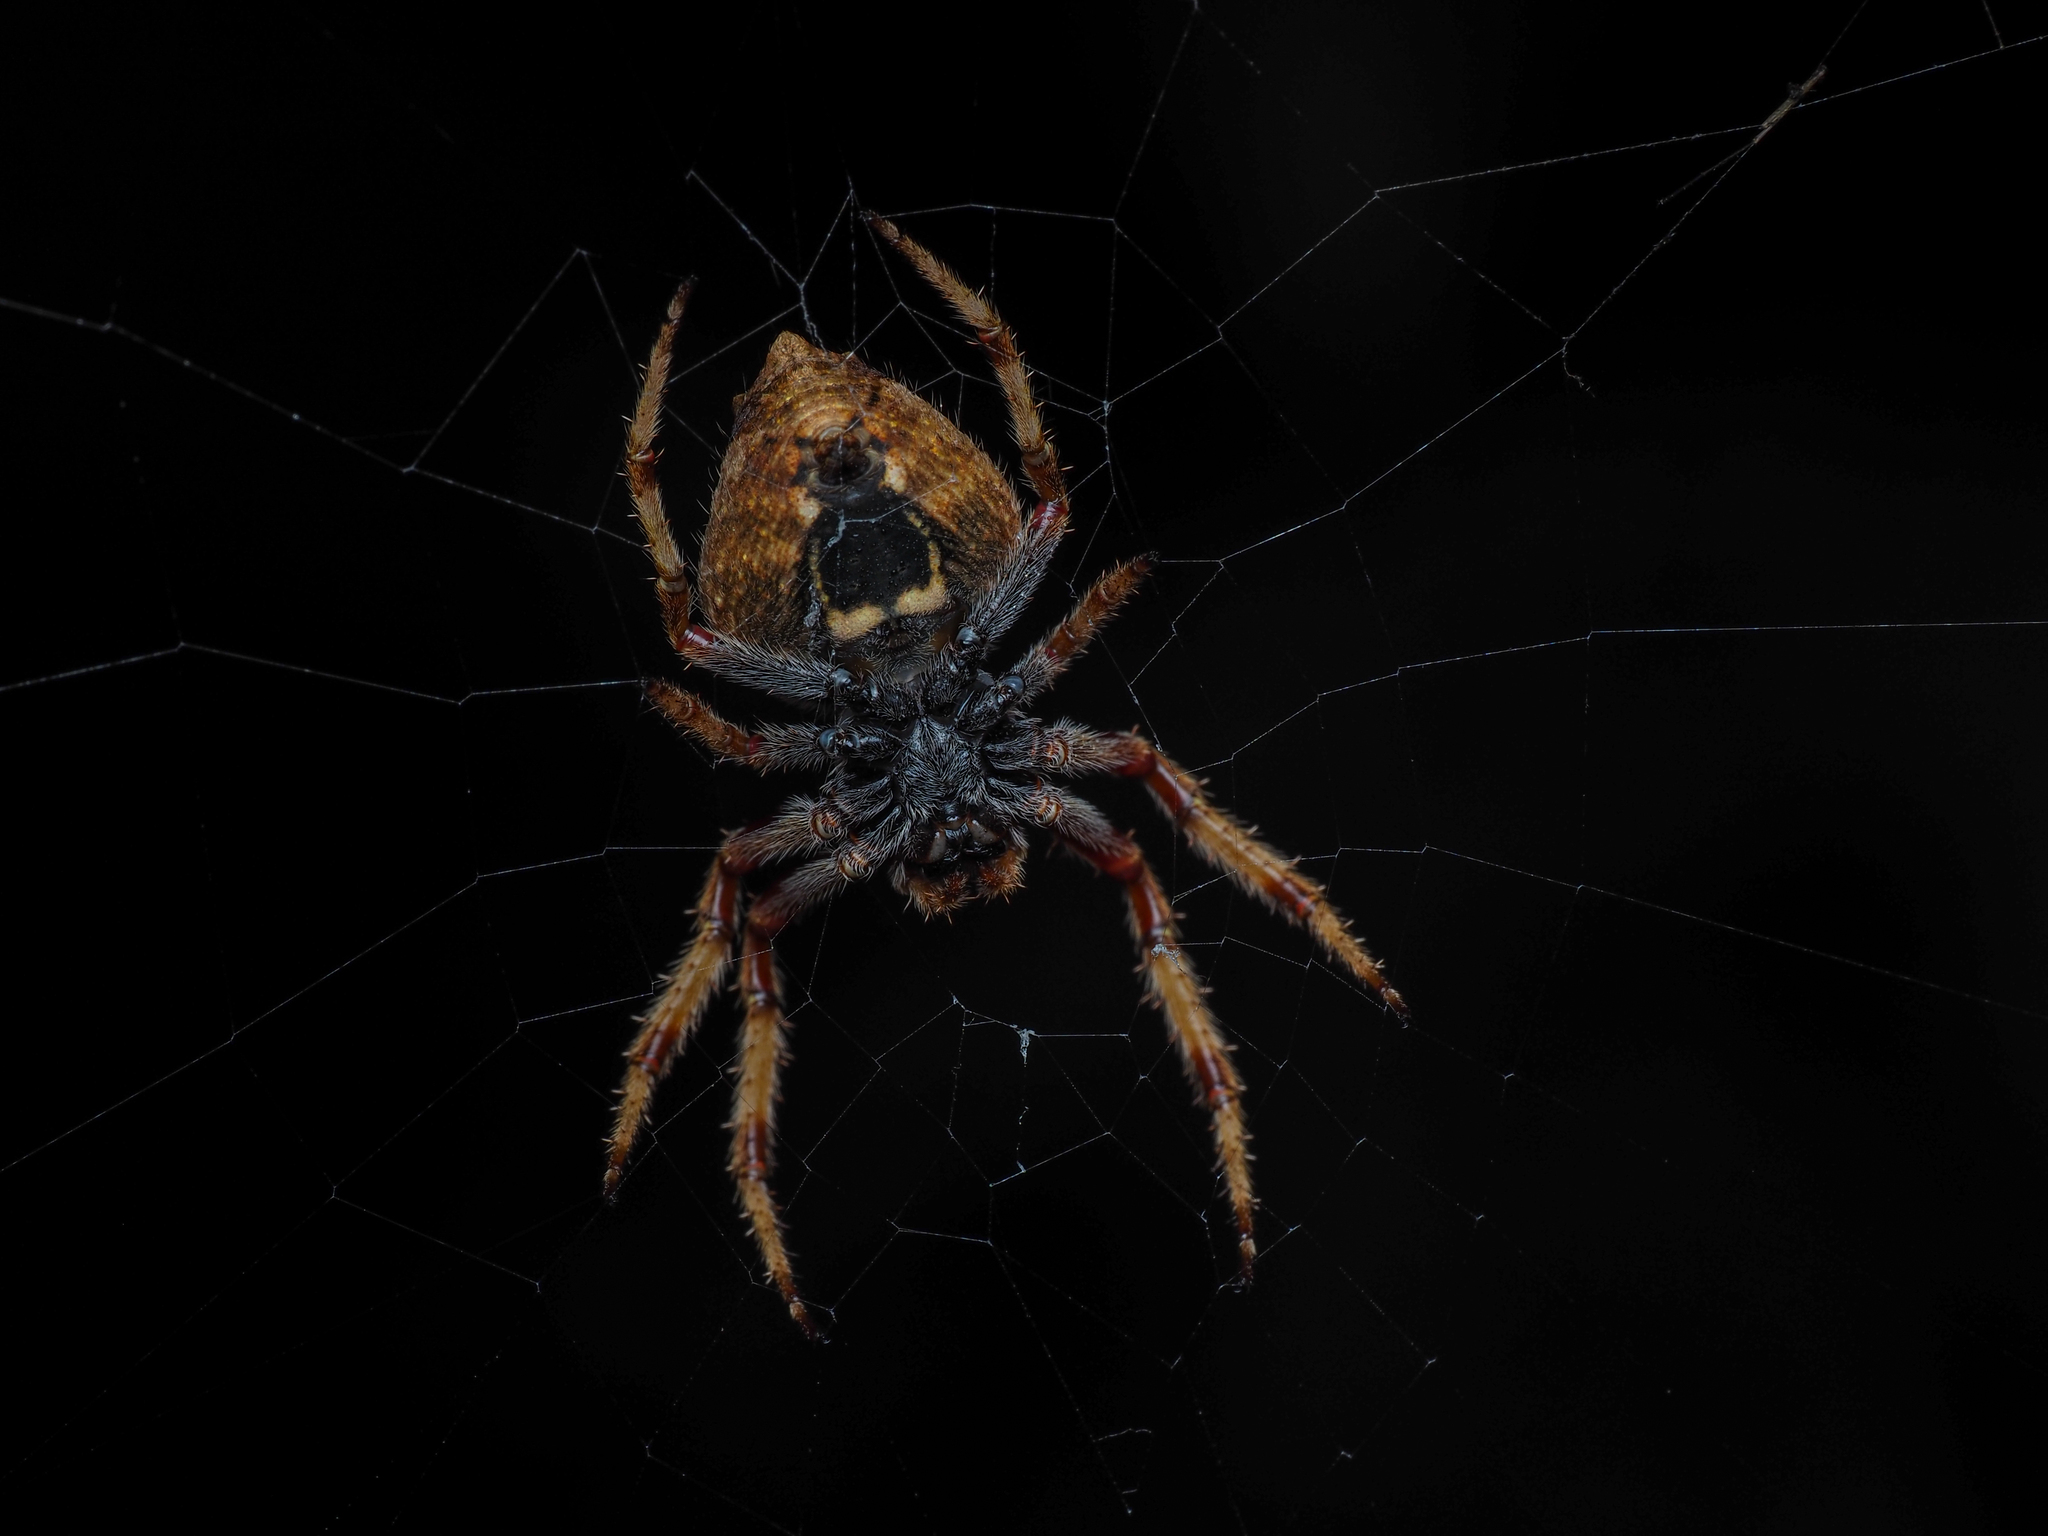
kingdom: Animalia
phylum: Arthropoda
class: Arachnida
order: Araneae
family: Araneidae
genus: Eriophora
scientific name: Eriophora pustulosa
